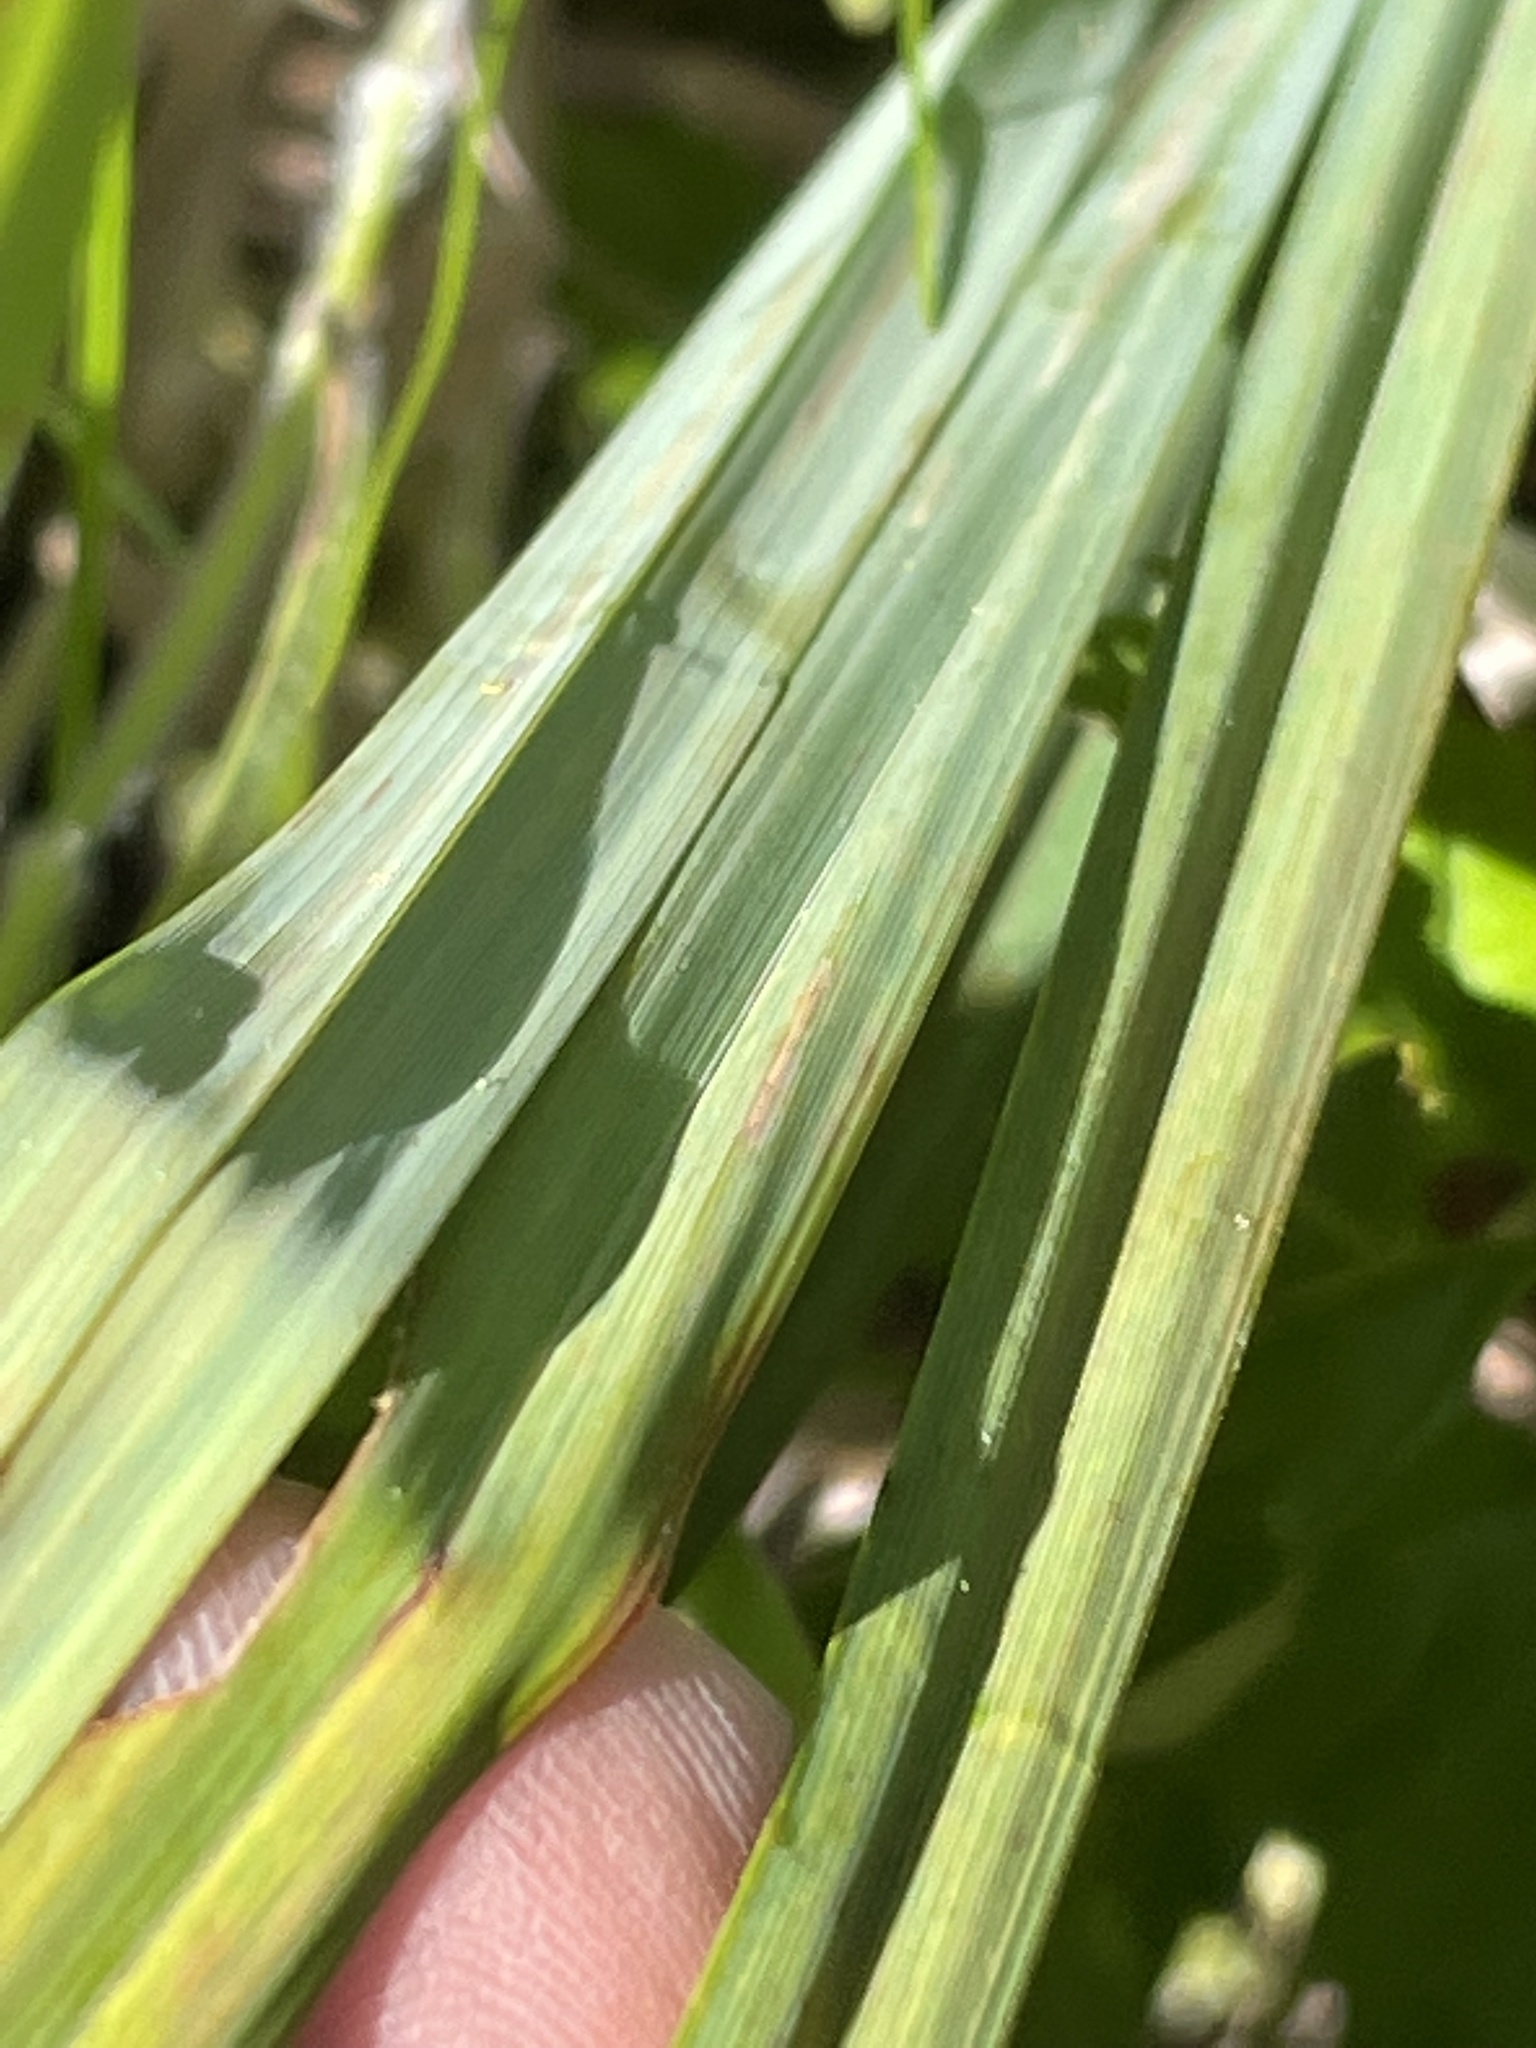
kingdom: Plantae
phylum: Tracheophyta
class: Liliopsida
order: Poales
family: Cyperaceae
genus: Carex
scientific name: Carex glaucescens
